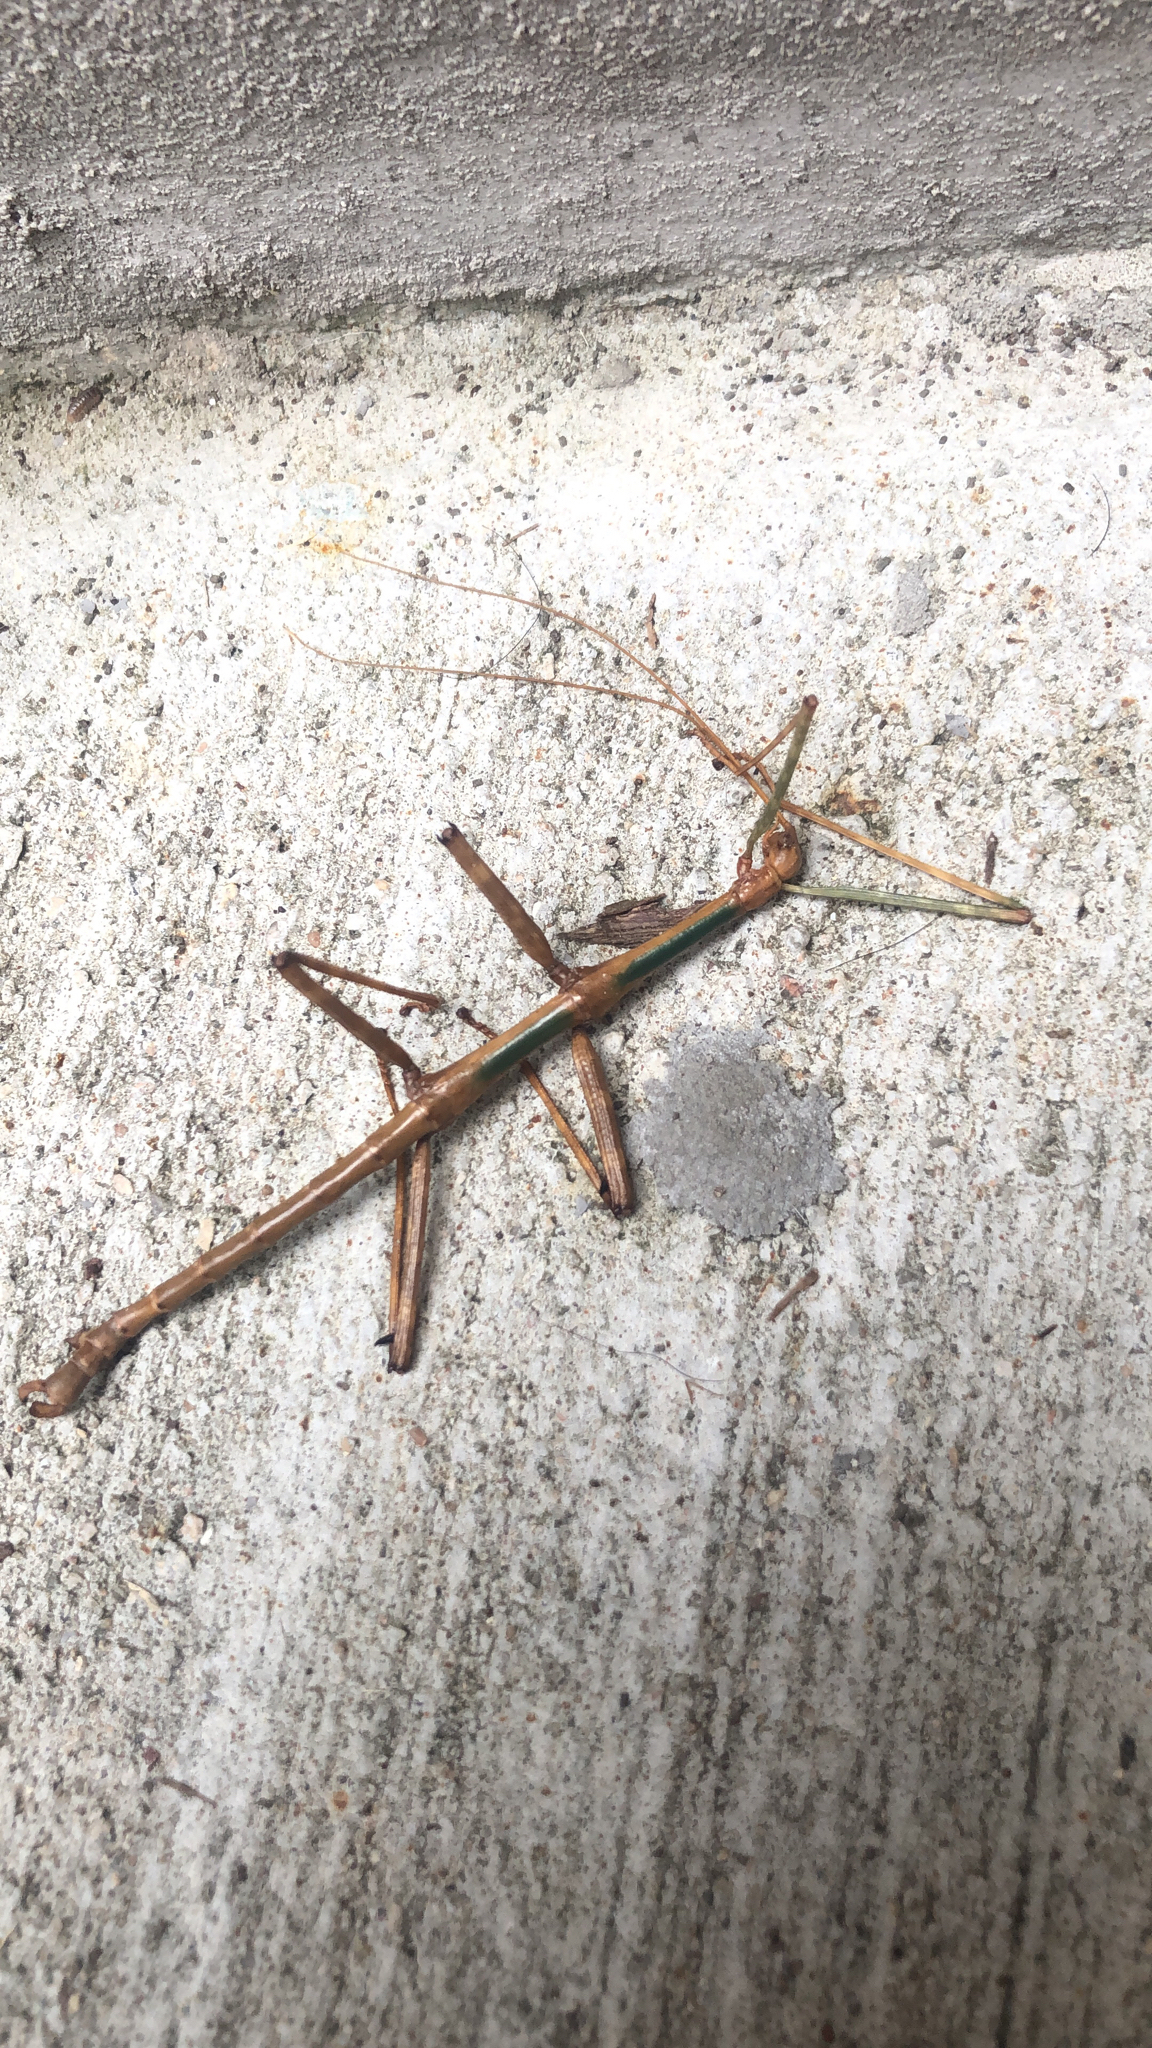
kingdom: Animalia
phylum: Arthropoda
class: Insecta
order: Phasmida
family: Diapheromeridae
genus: Megaphasma
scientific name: Megaphasma denticrus
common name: Giant walkingstick
